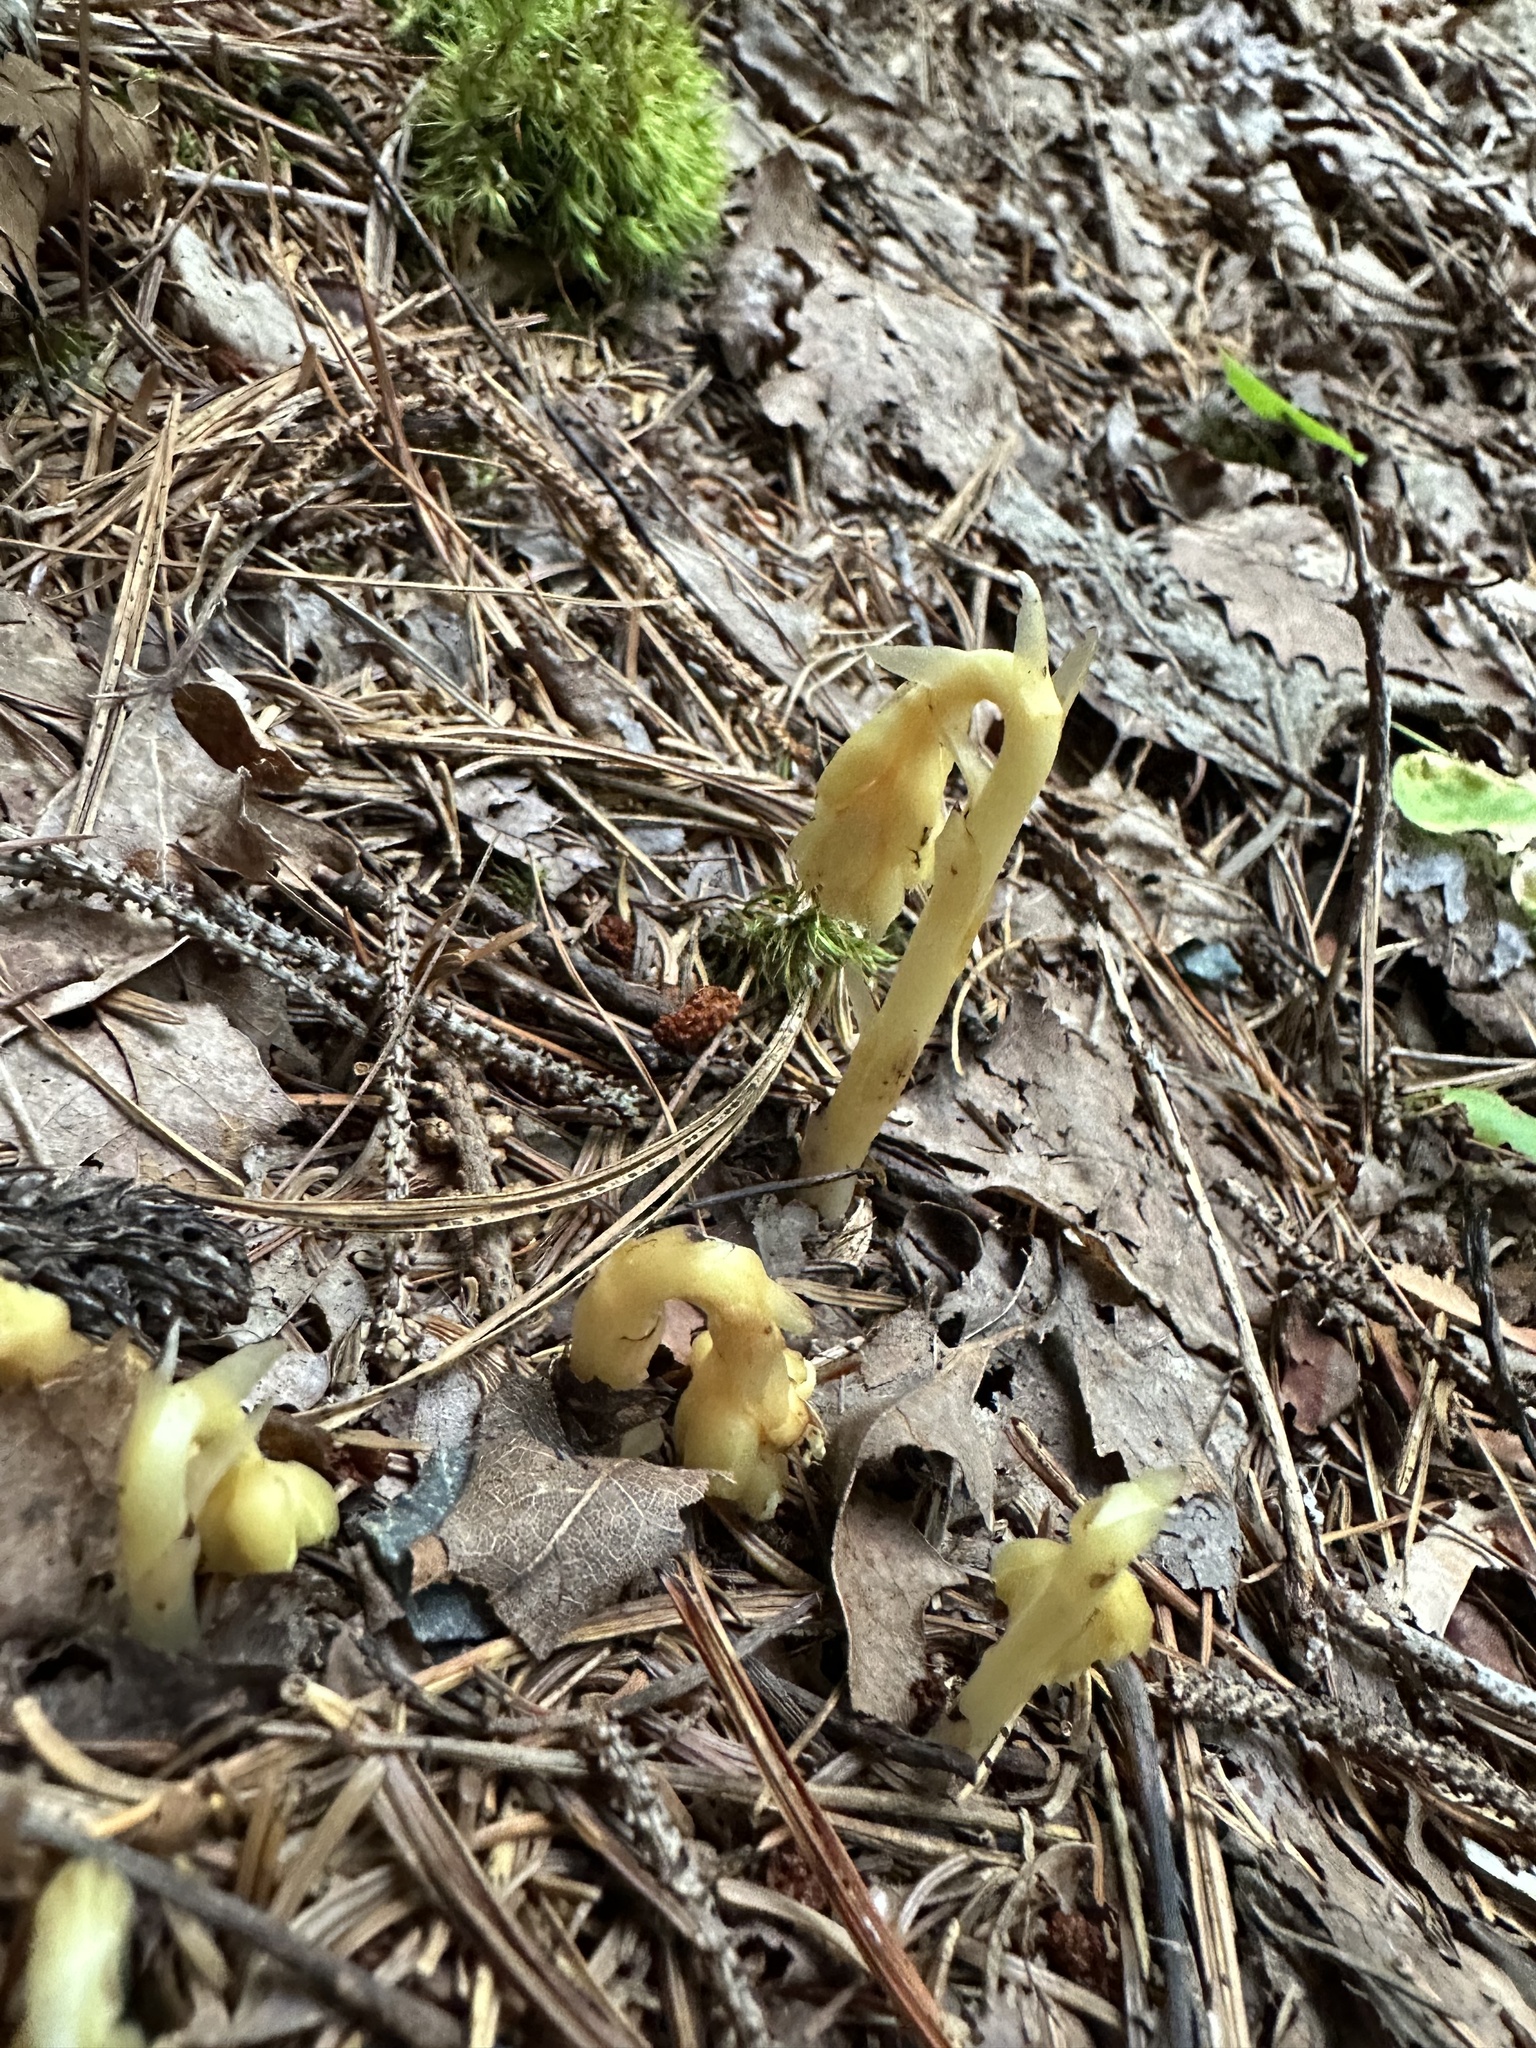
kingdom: Plantae
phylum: Tracheophyta
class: Magnoliopsida
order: Ericales
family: Ericaceae
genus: Hypopitys
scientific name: Hypopitys monotropa
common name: Yellow bird's-nest
